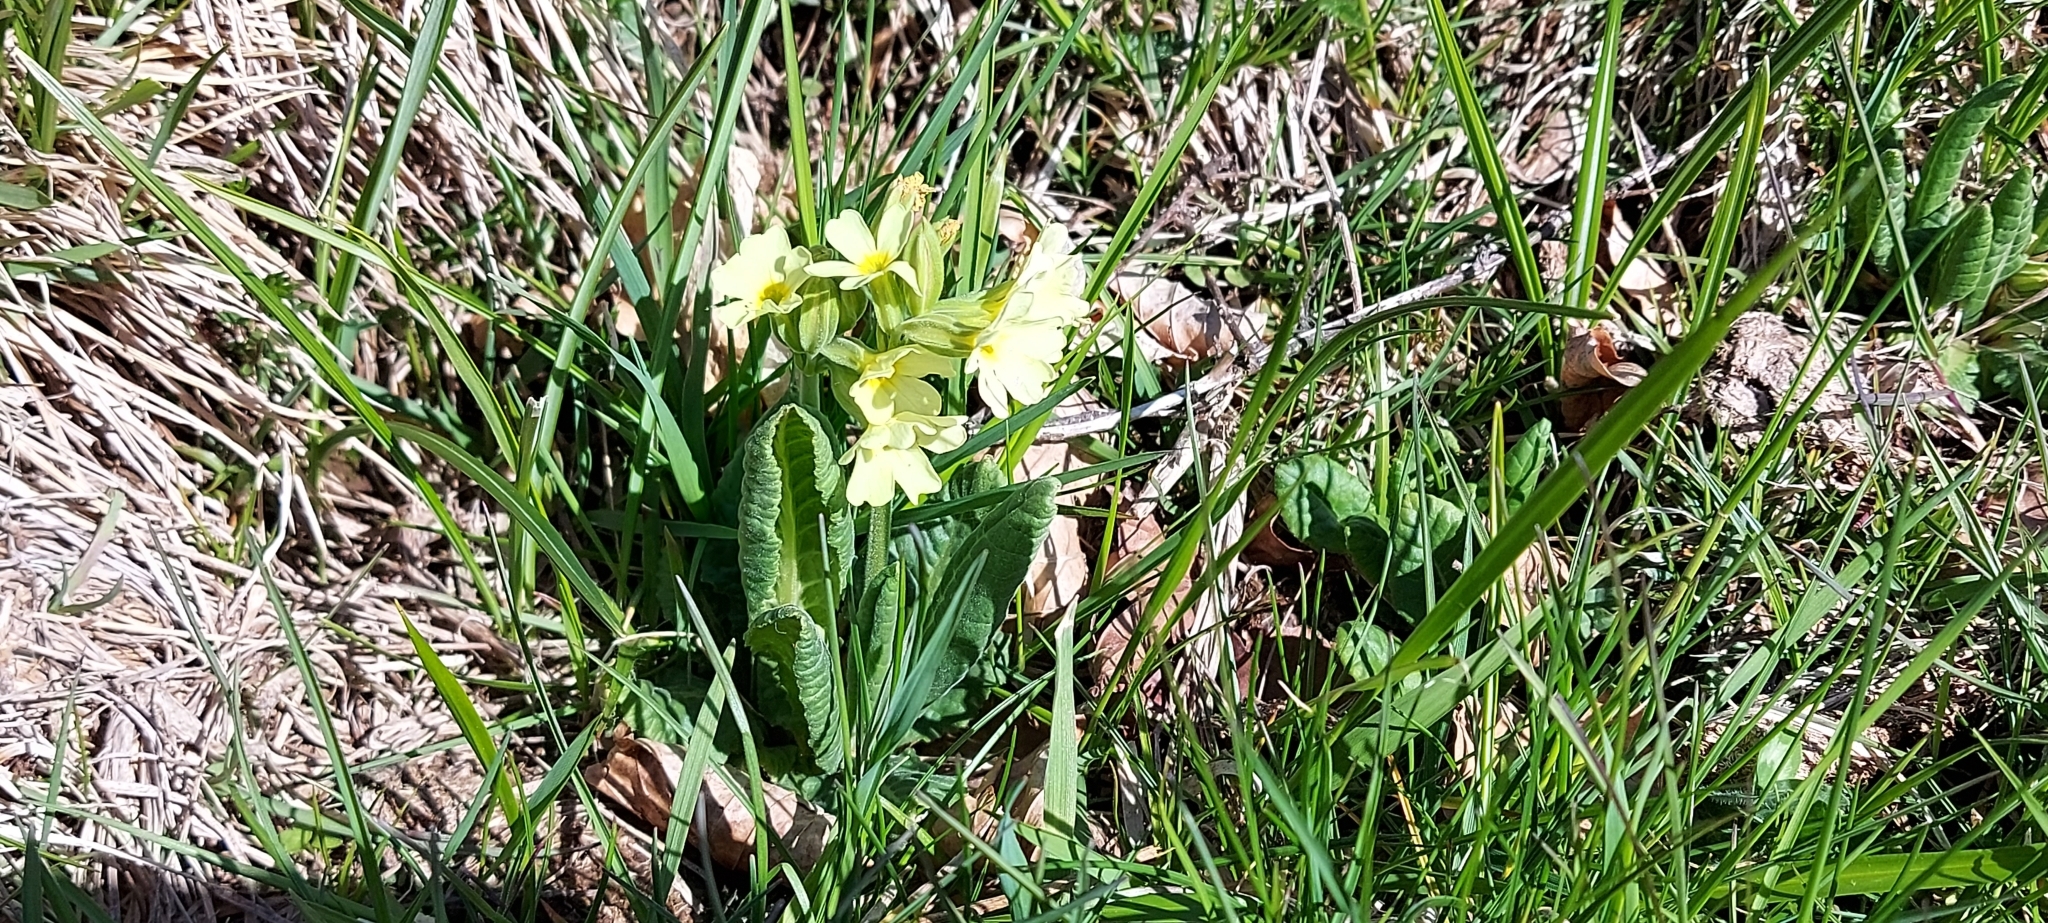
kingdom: Plantae
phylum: Tracheophyta
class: Magnoliopsida
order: Ericales
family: Primulaceae
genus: Primula
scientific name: Primula elatior
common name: Oxlip
